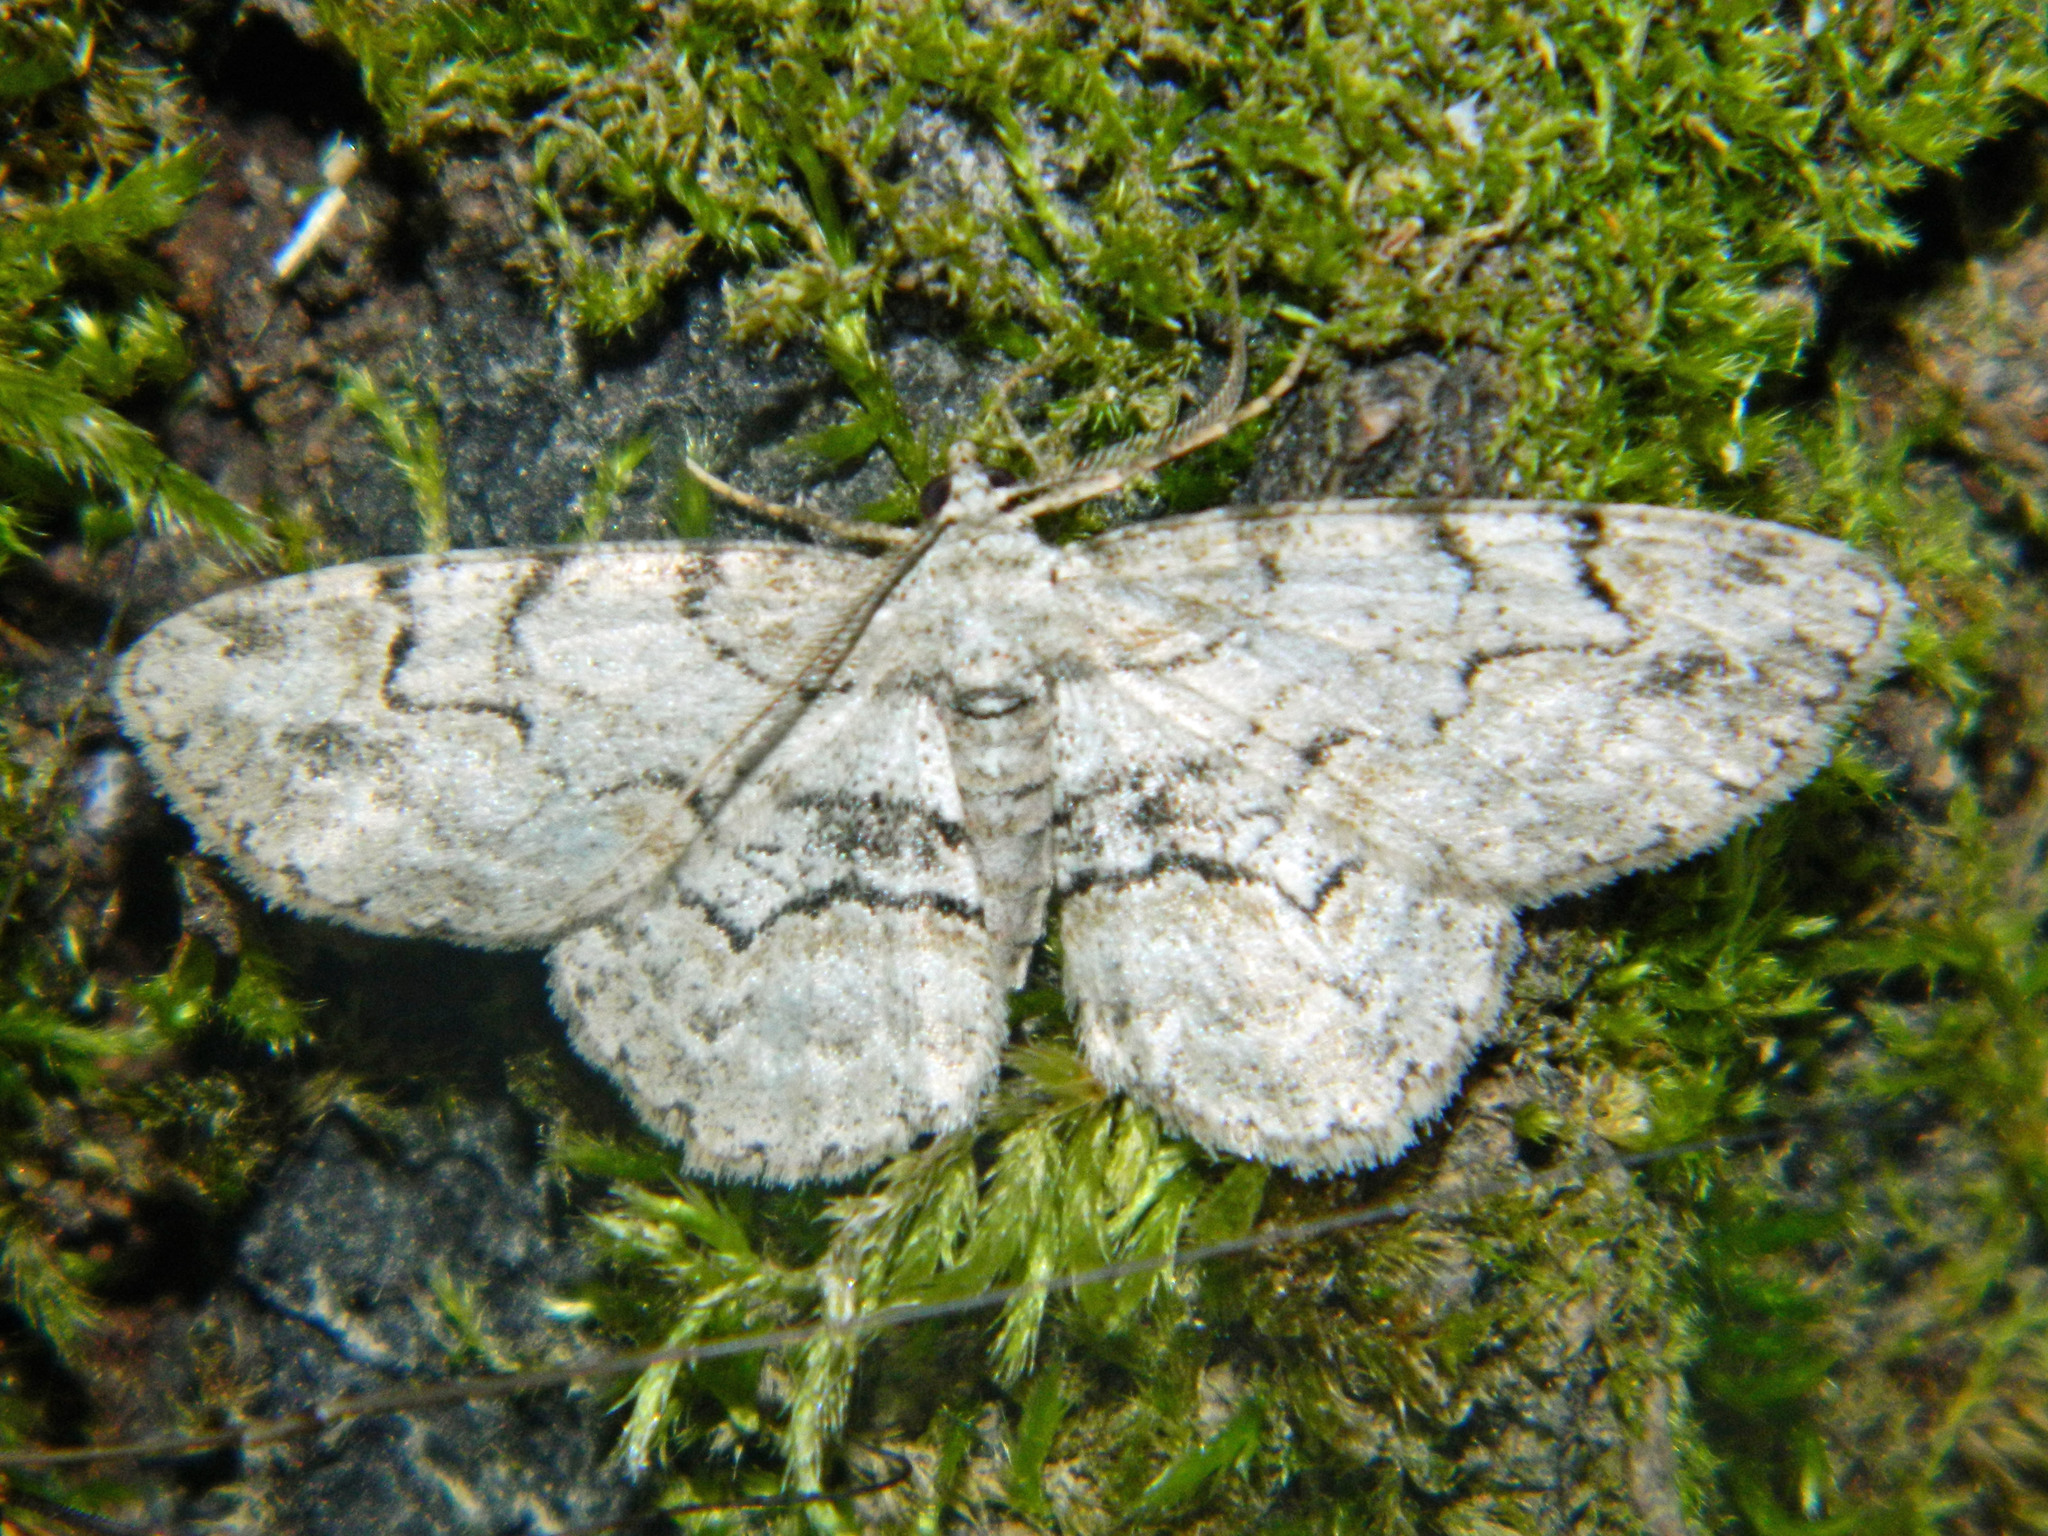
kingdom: Animalia
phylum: Arthropoda
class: Insecta
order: Lepidoptera
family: Geometridae
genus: Iridopsis
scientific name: Iridopsis larvaria
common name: Bent-line gray
